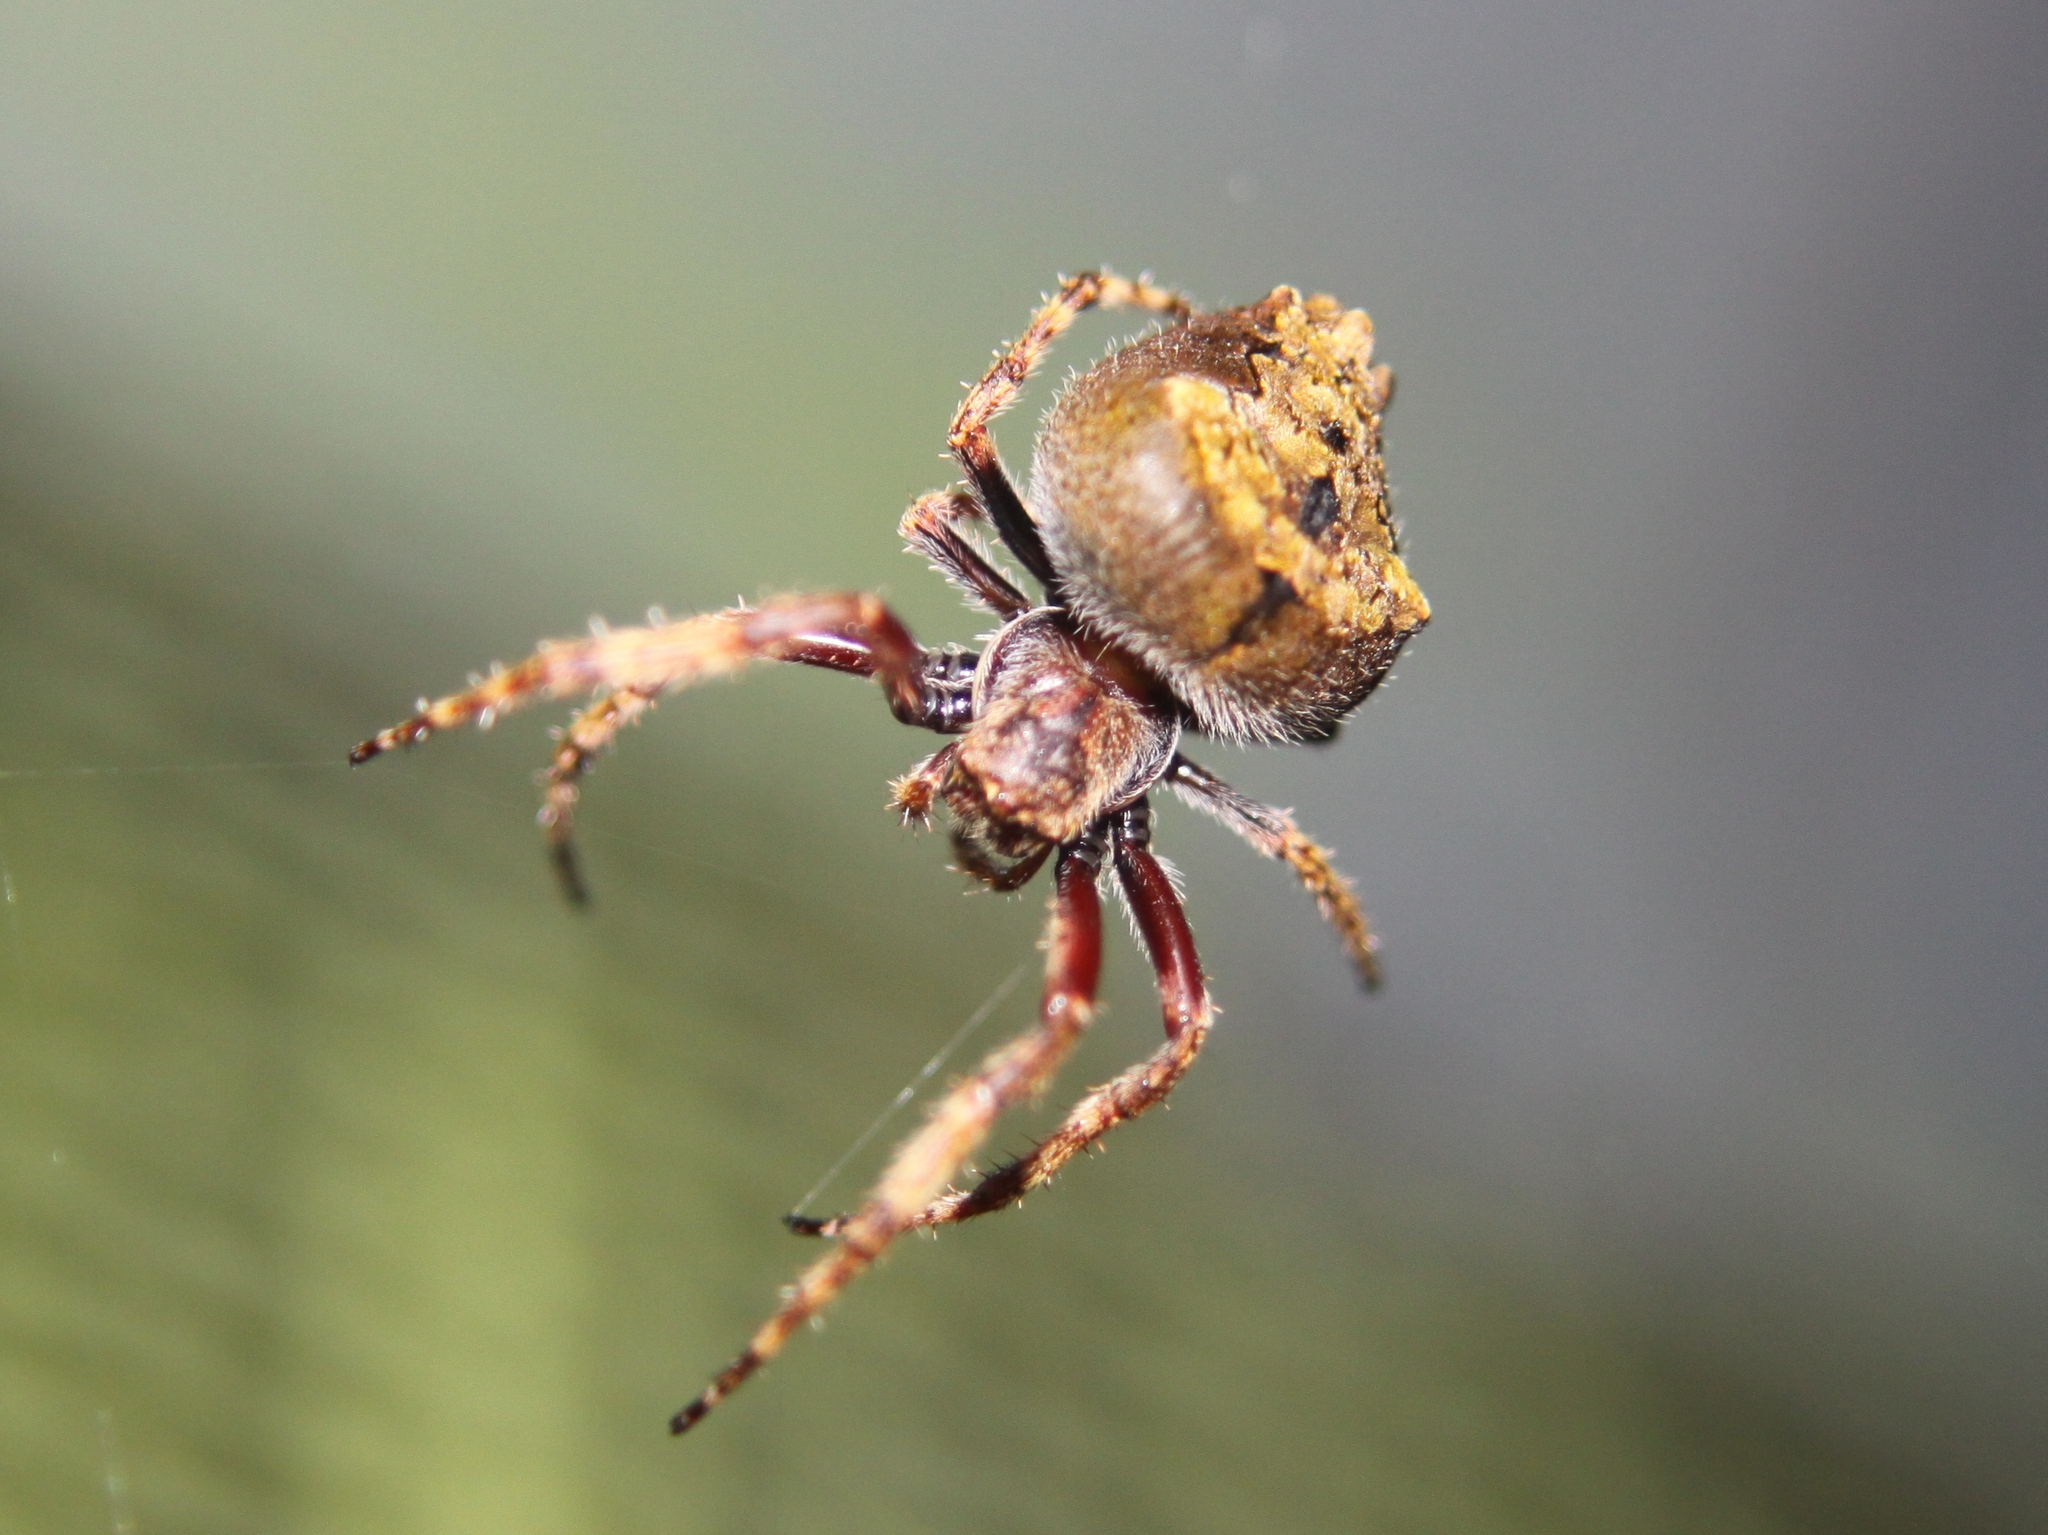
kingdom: Animalia
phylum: Arthropoda
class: Arachnida
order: Araneae
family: Araneidae
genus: Eriophora
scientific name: Eriophora pustulosa
